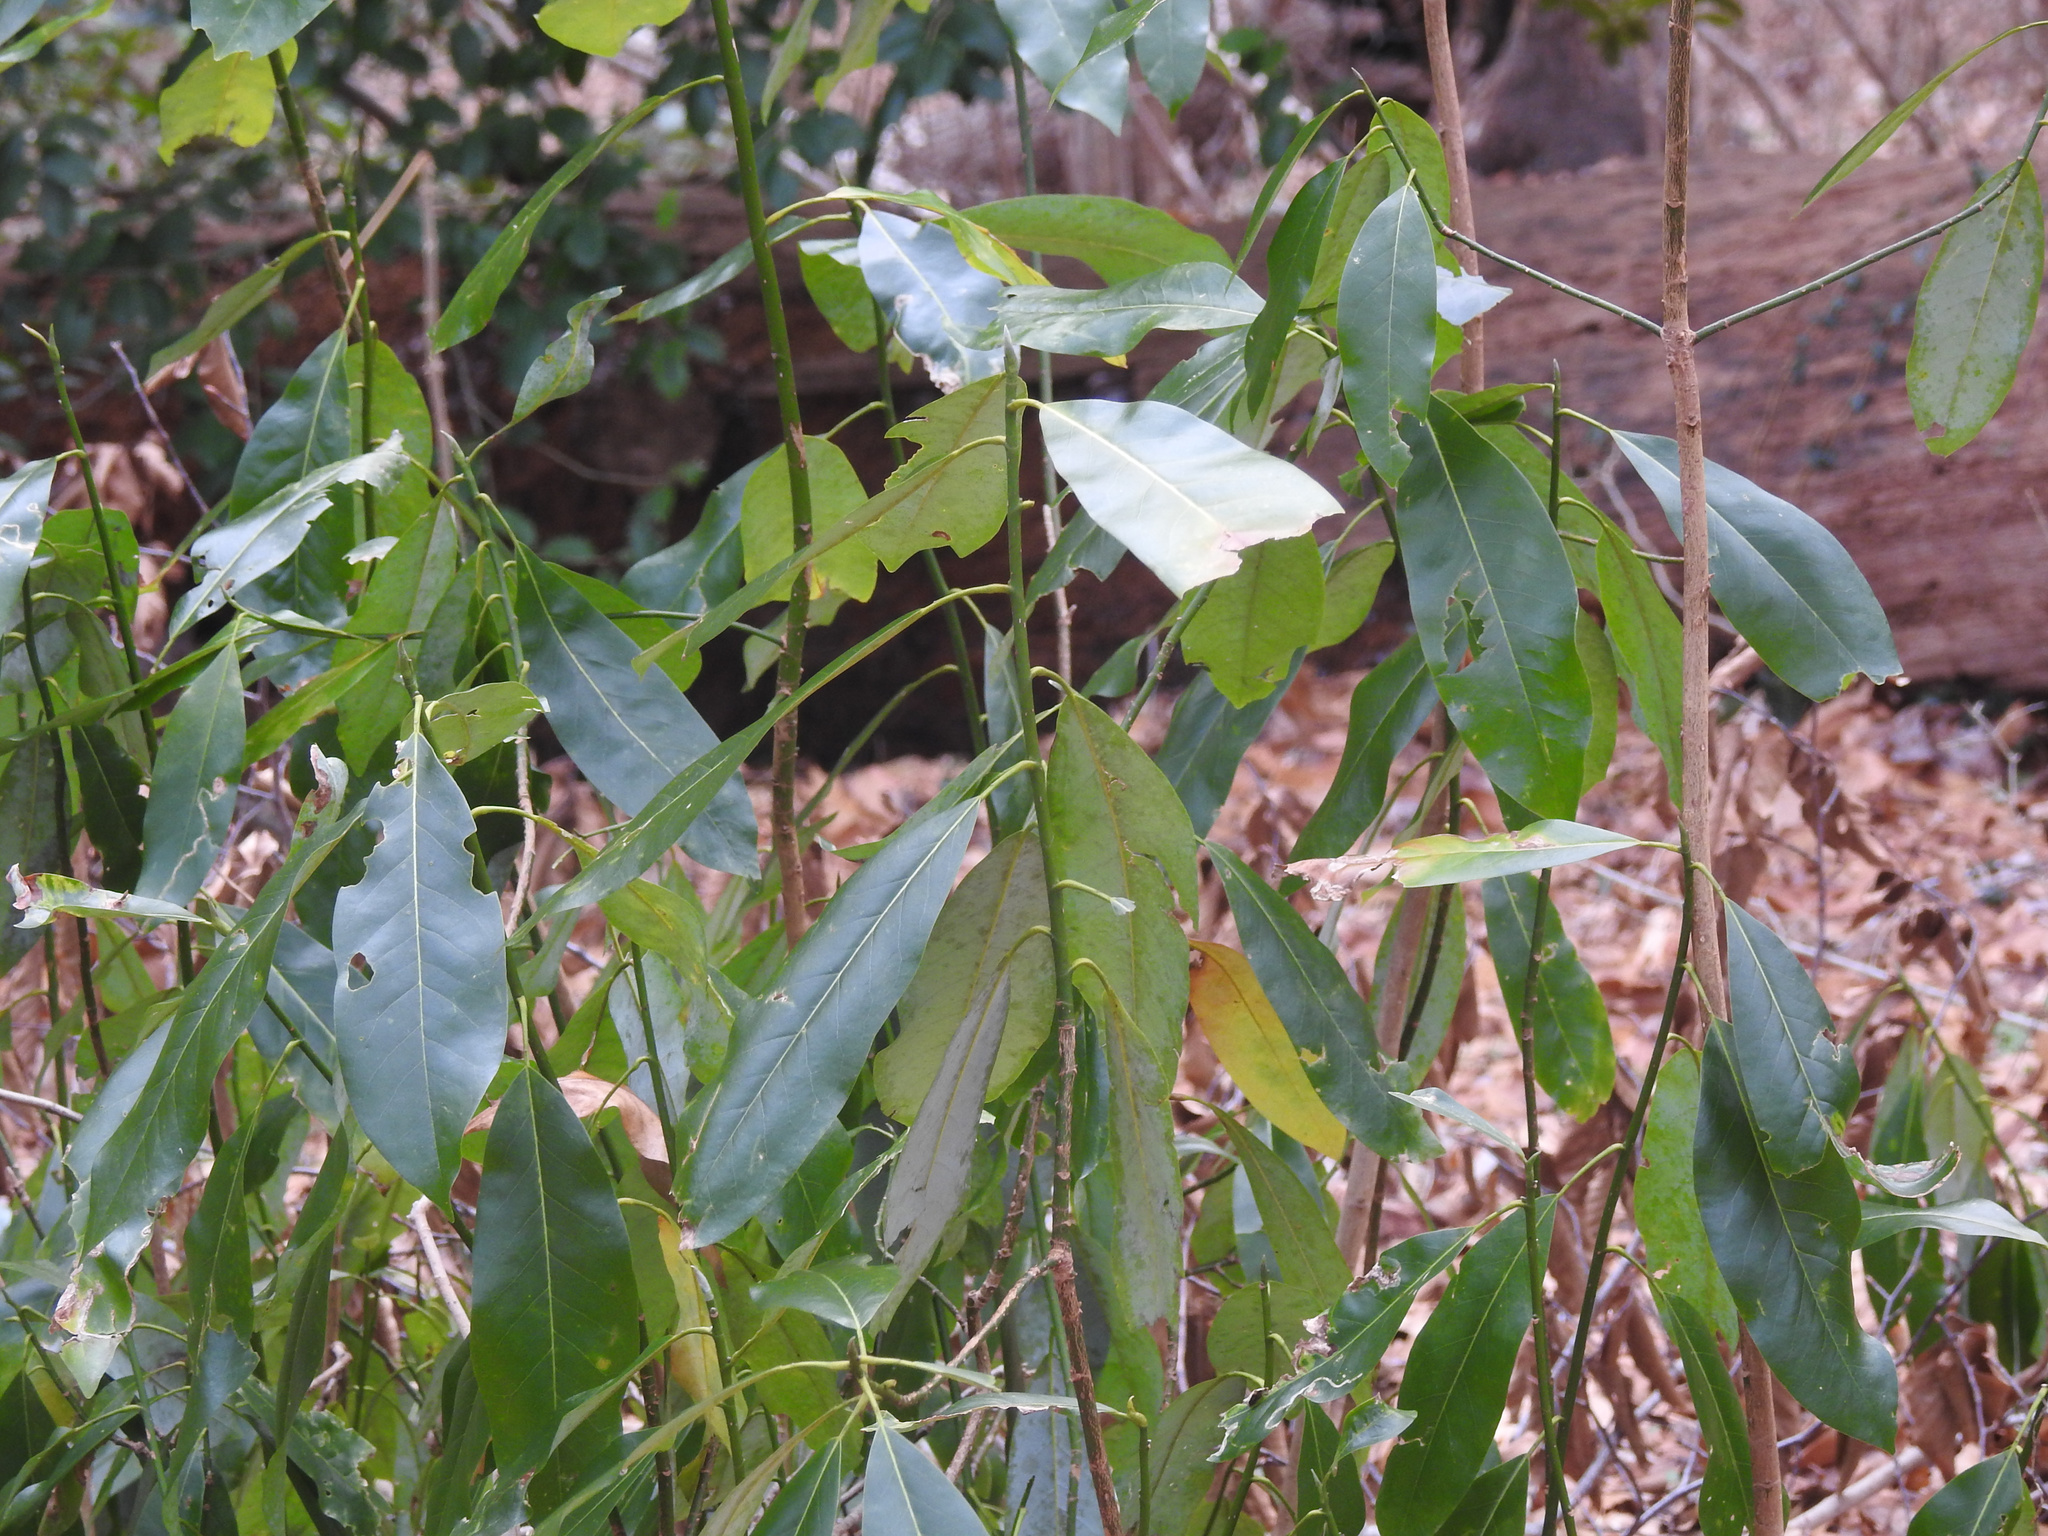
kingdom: Plantae
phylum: Tracheophyta
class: Magnoliopsida
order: Magnoliales
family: Magnoliaceae
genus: Magnolia
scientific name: Magnolia virginiana
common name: Swamp bay
